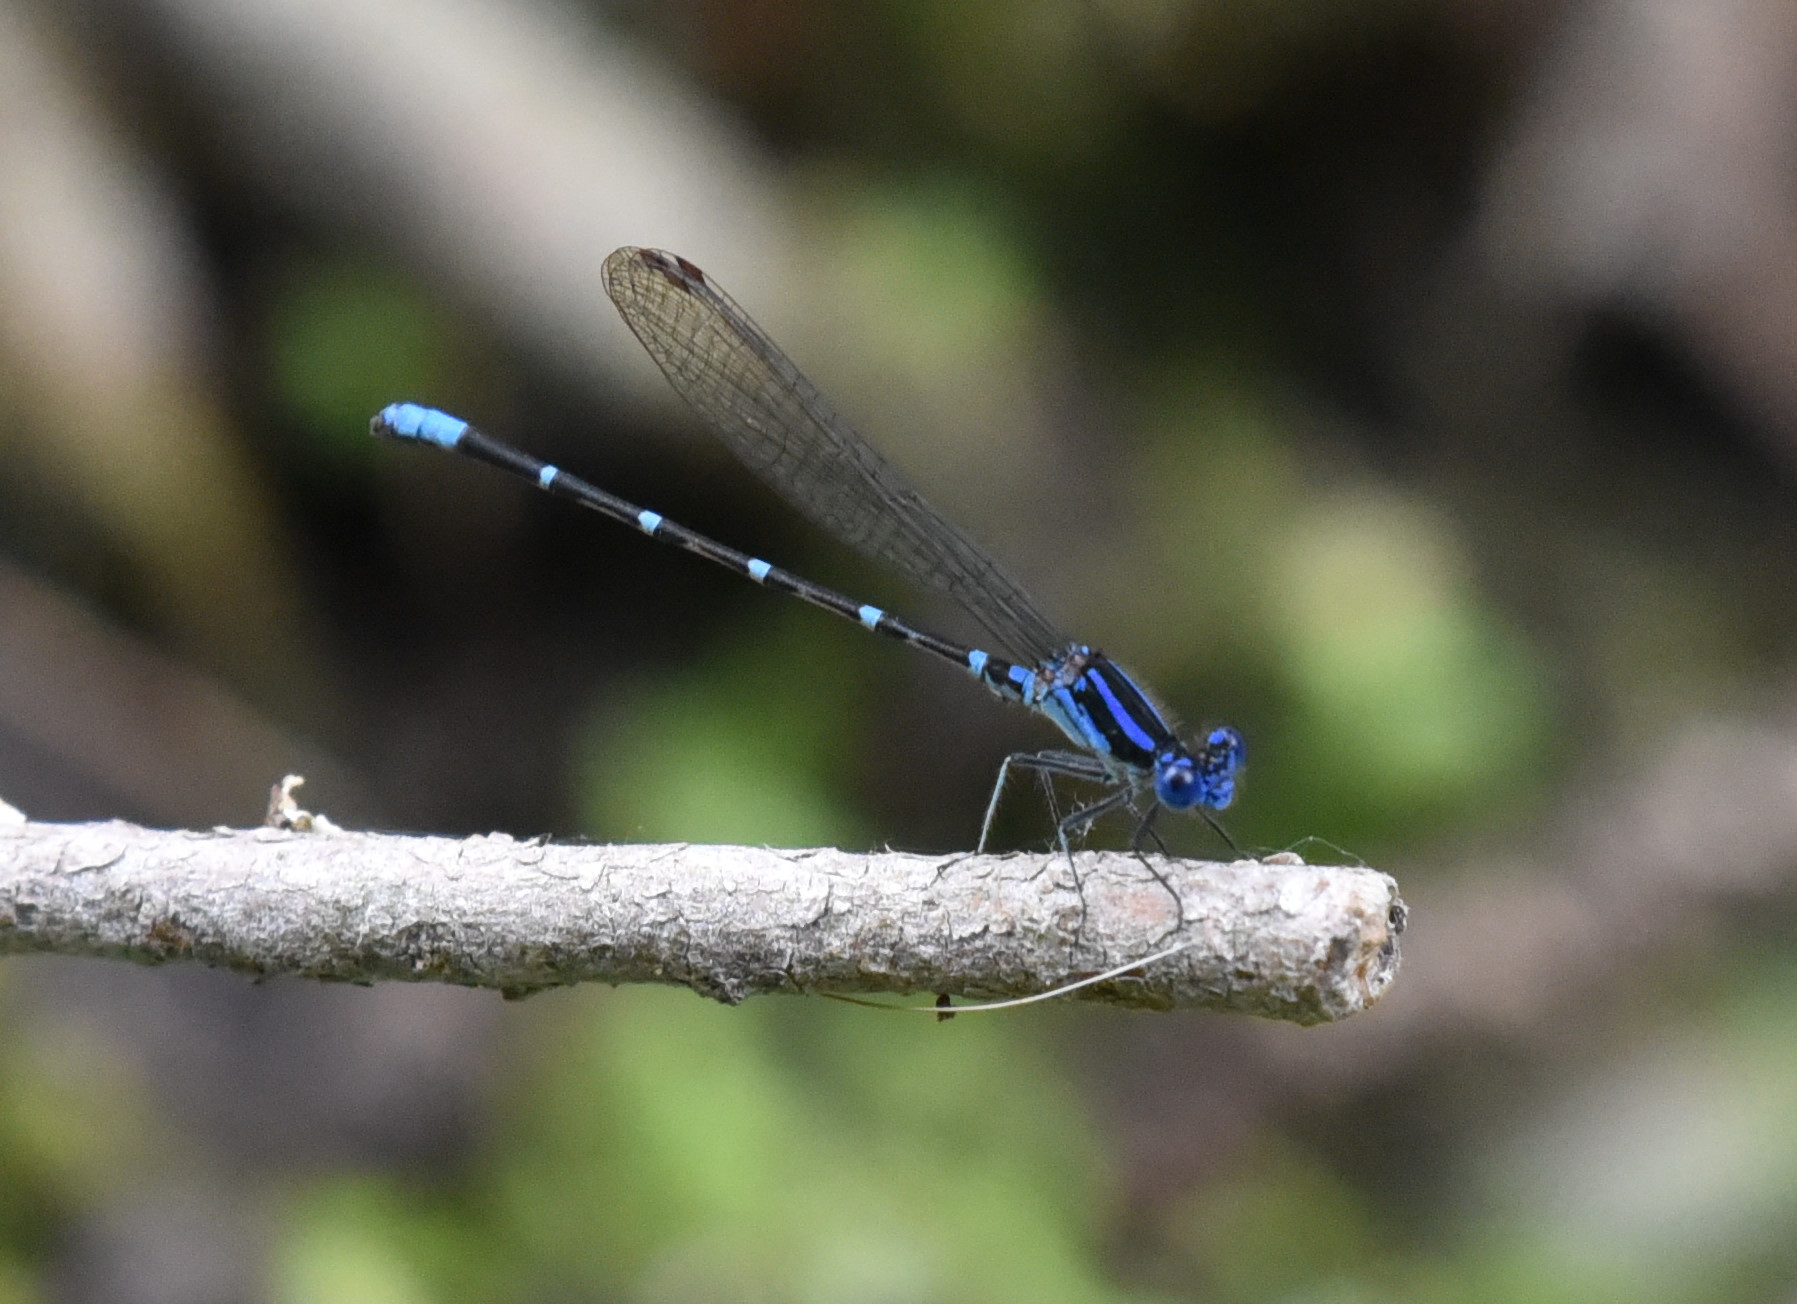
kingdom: Animalia
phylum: Arthropoda
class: Insecta
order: Odonata
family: Coenagrionidae
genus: Argia
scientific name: Argia sedula
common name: Blue-ringed dancer
